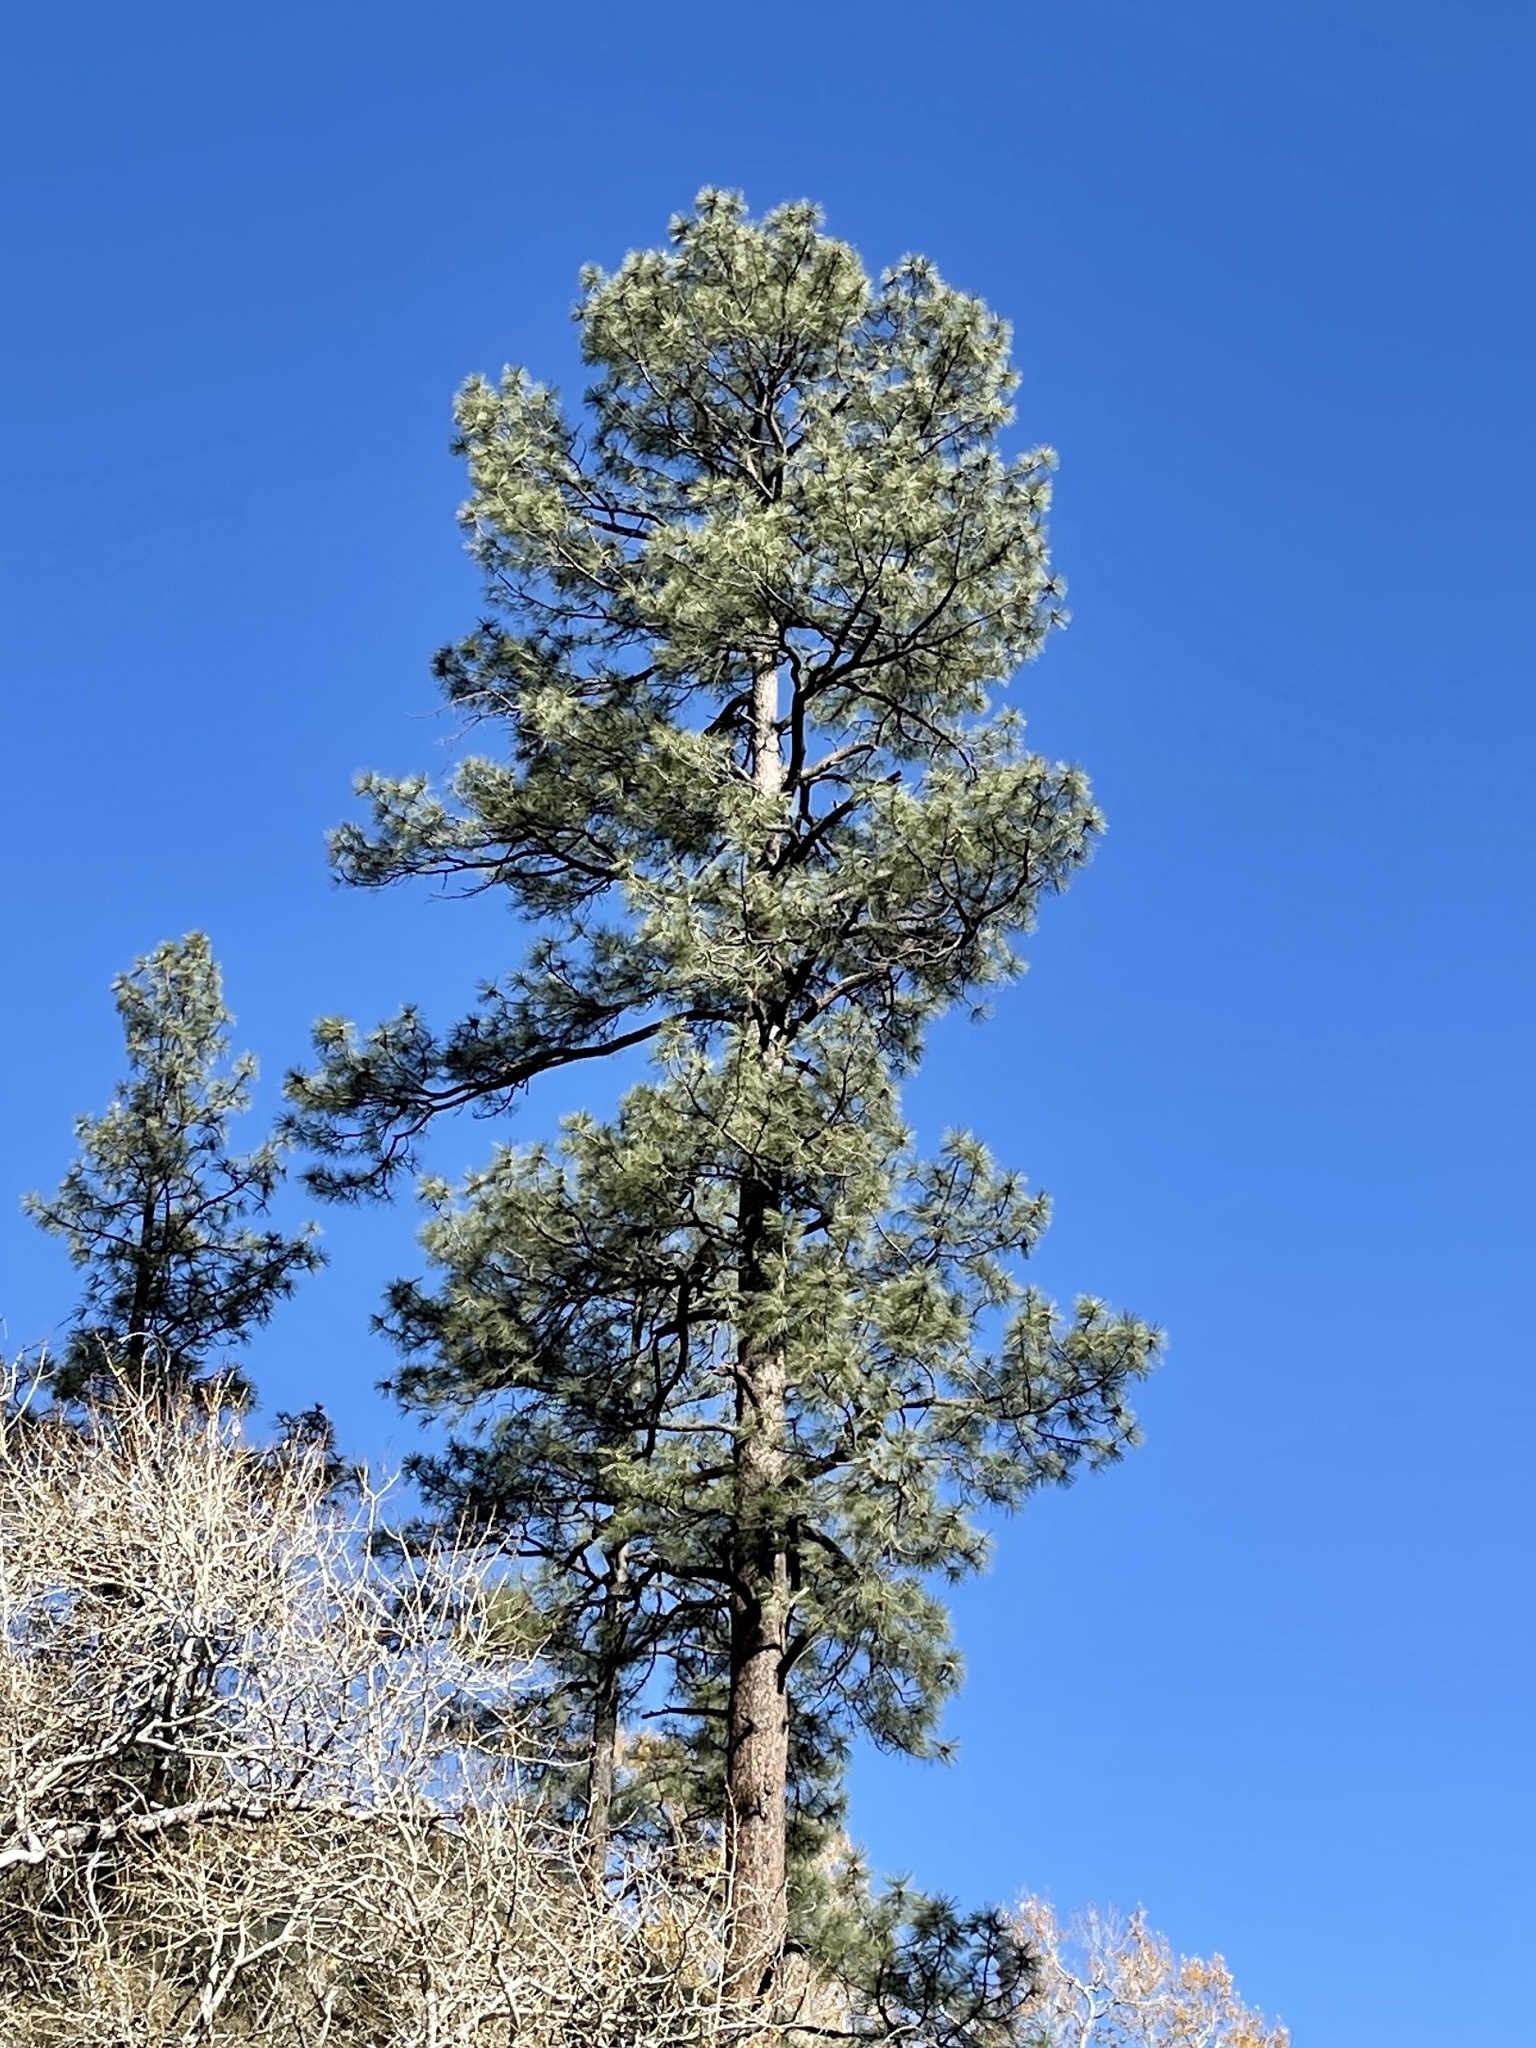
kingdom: Plantae
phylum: Tracheophyta
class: Pinopsida
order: Pinales
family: Pinaceae
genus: Pinus
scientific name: Pinus ponderosa
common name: Western yellow-pine
